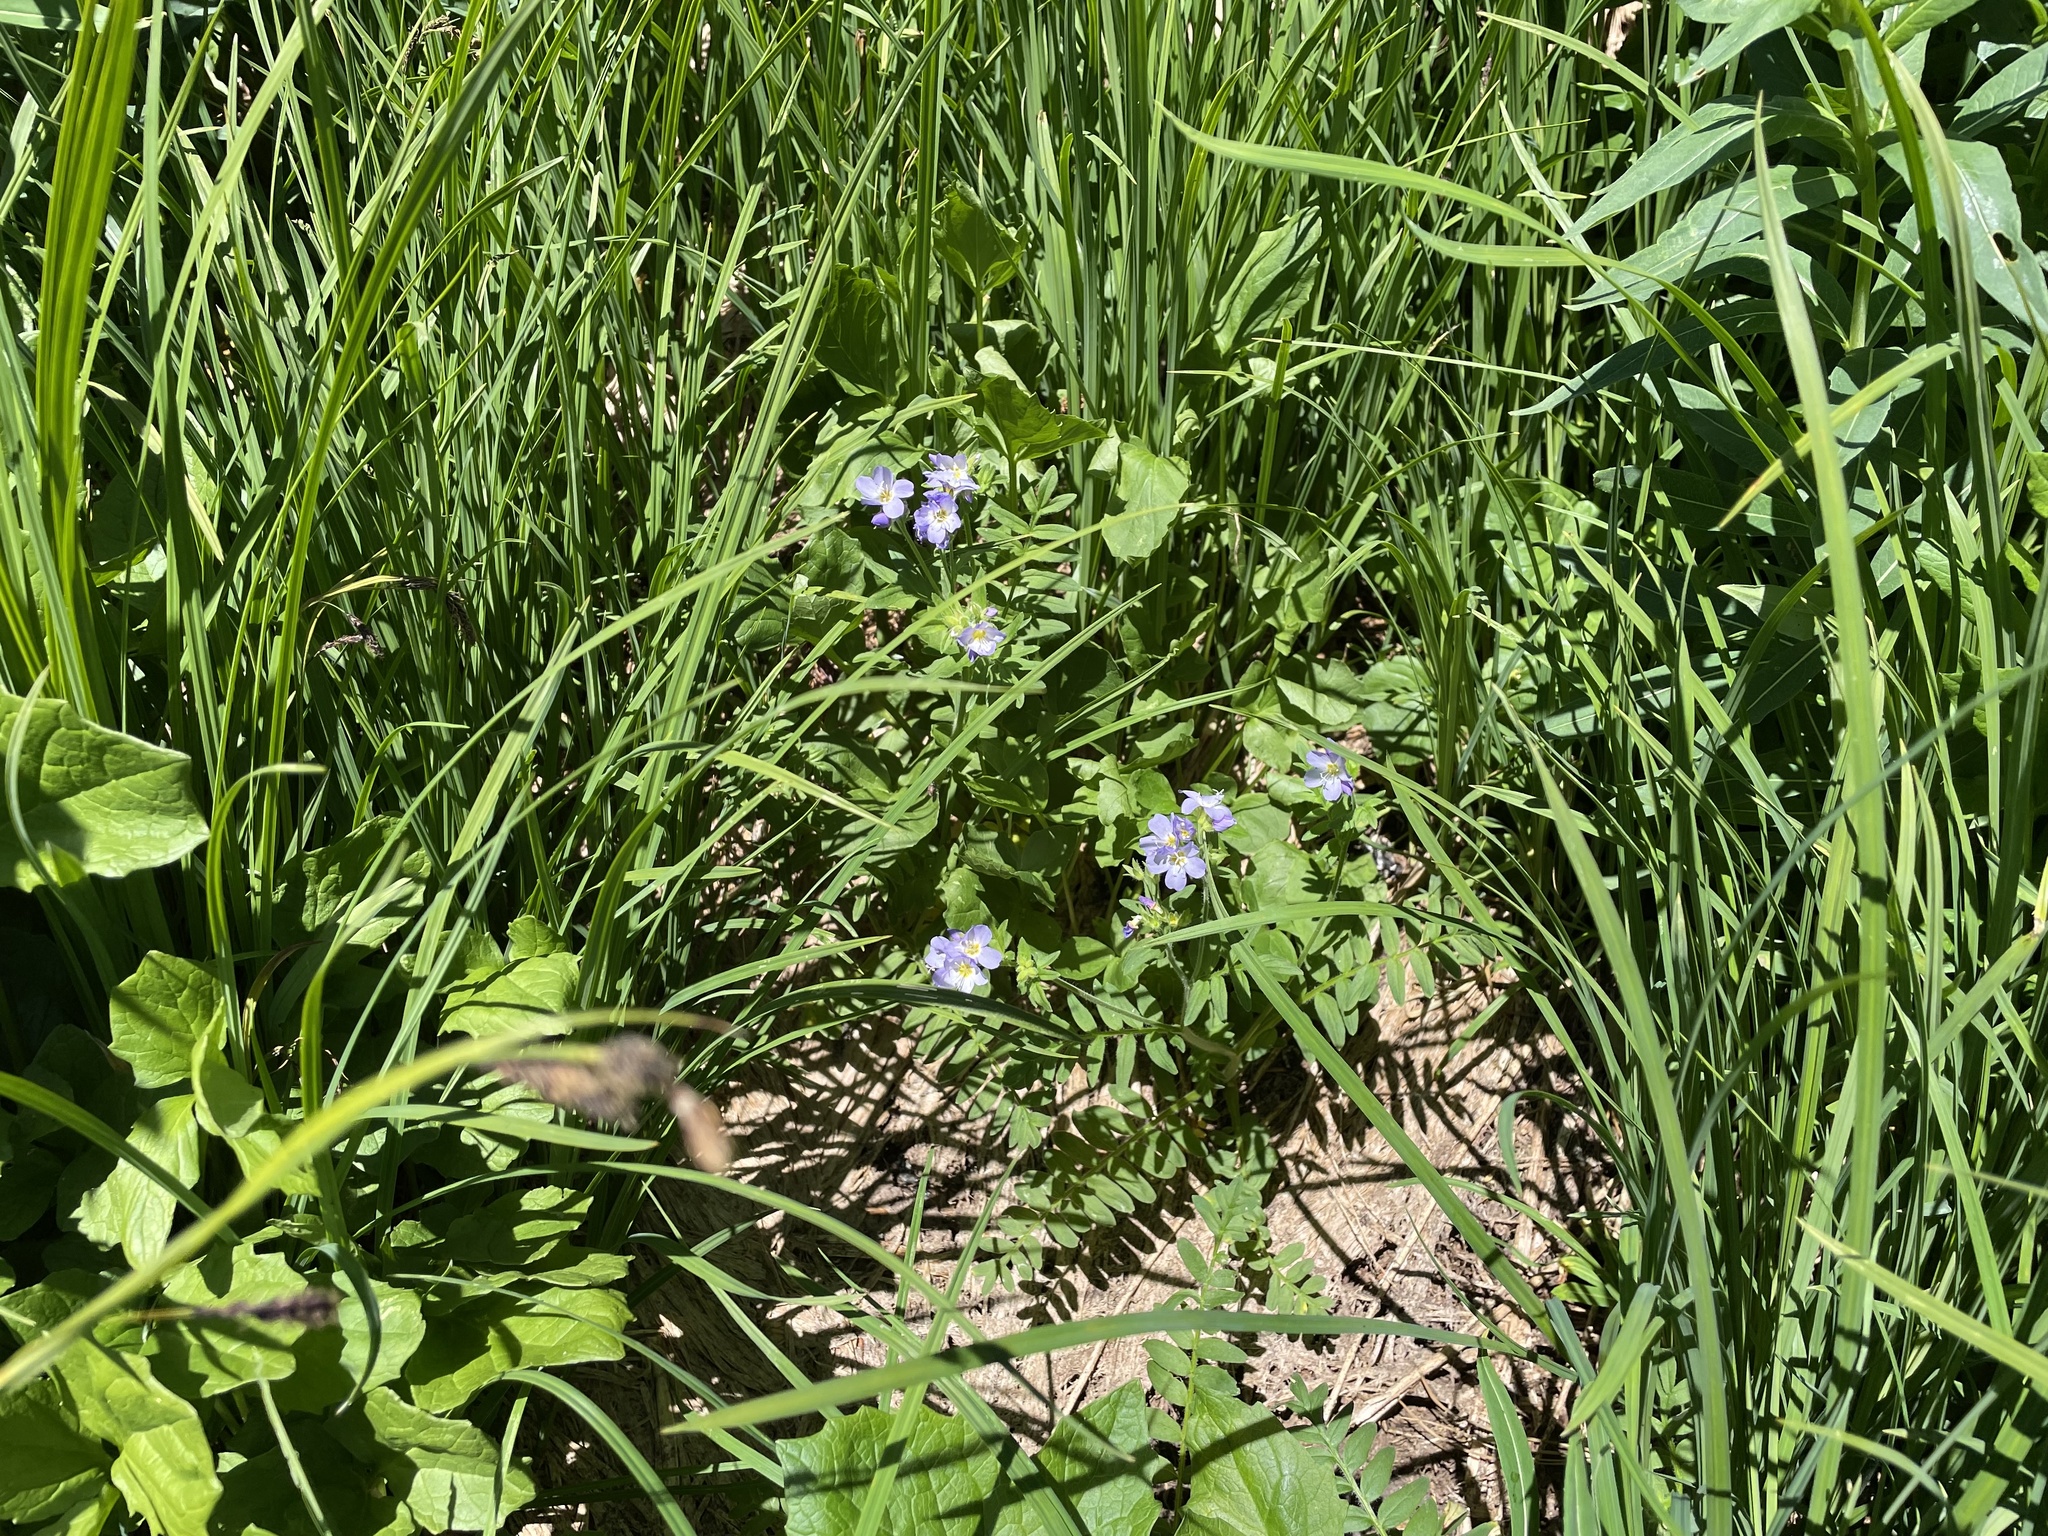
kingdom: Plantae
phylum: Tracheophyta
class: Magnoliopsida
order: Ericales
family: Polemoniaceae
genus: Polemonium
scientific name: Polemonium californicum
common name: California jacob's ladder
